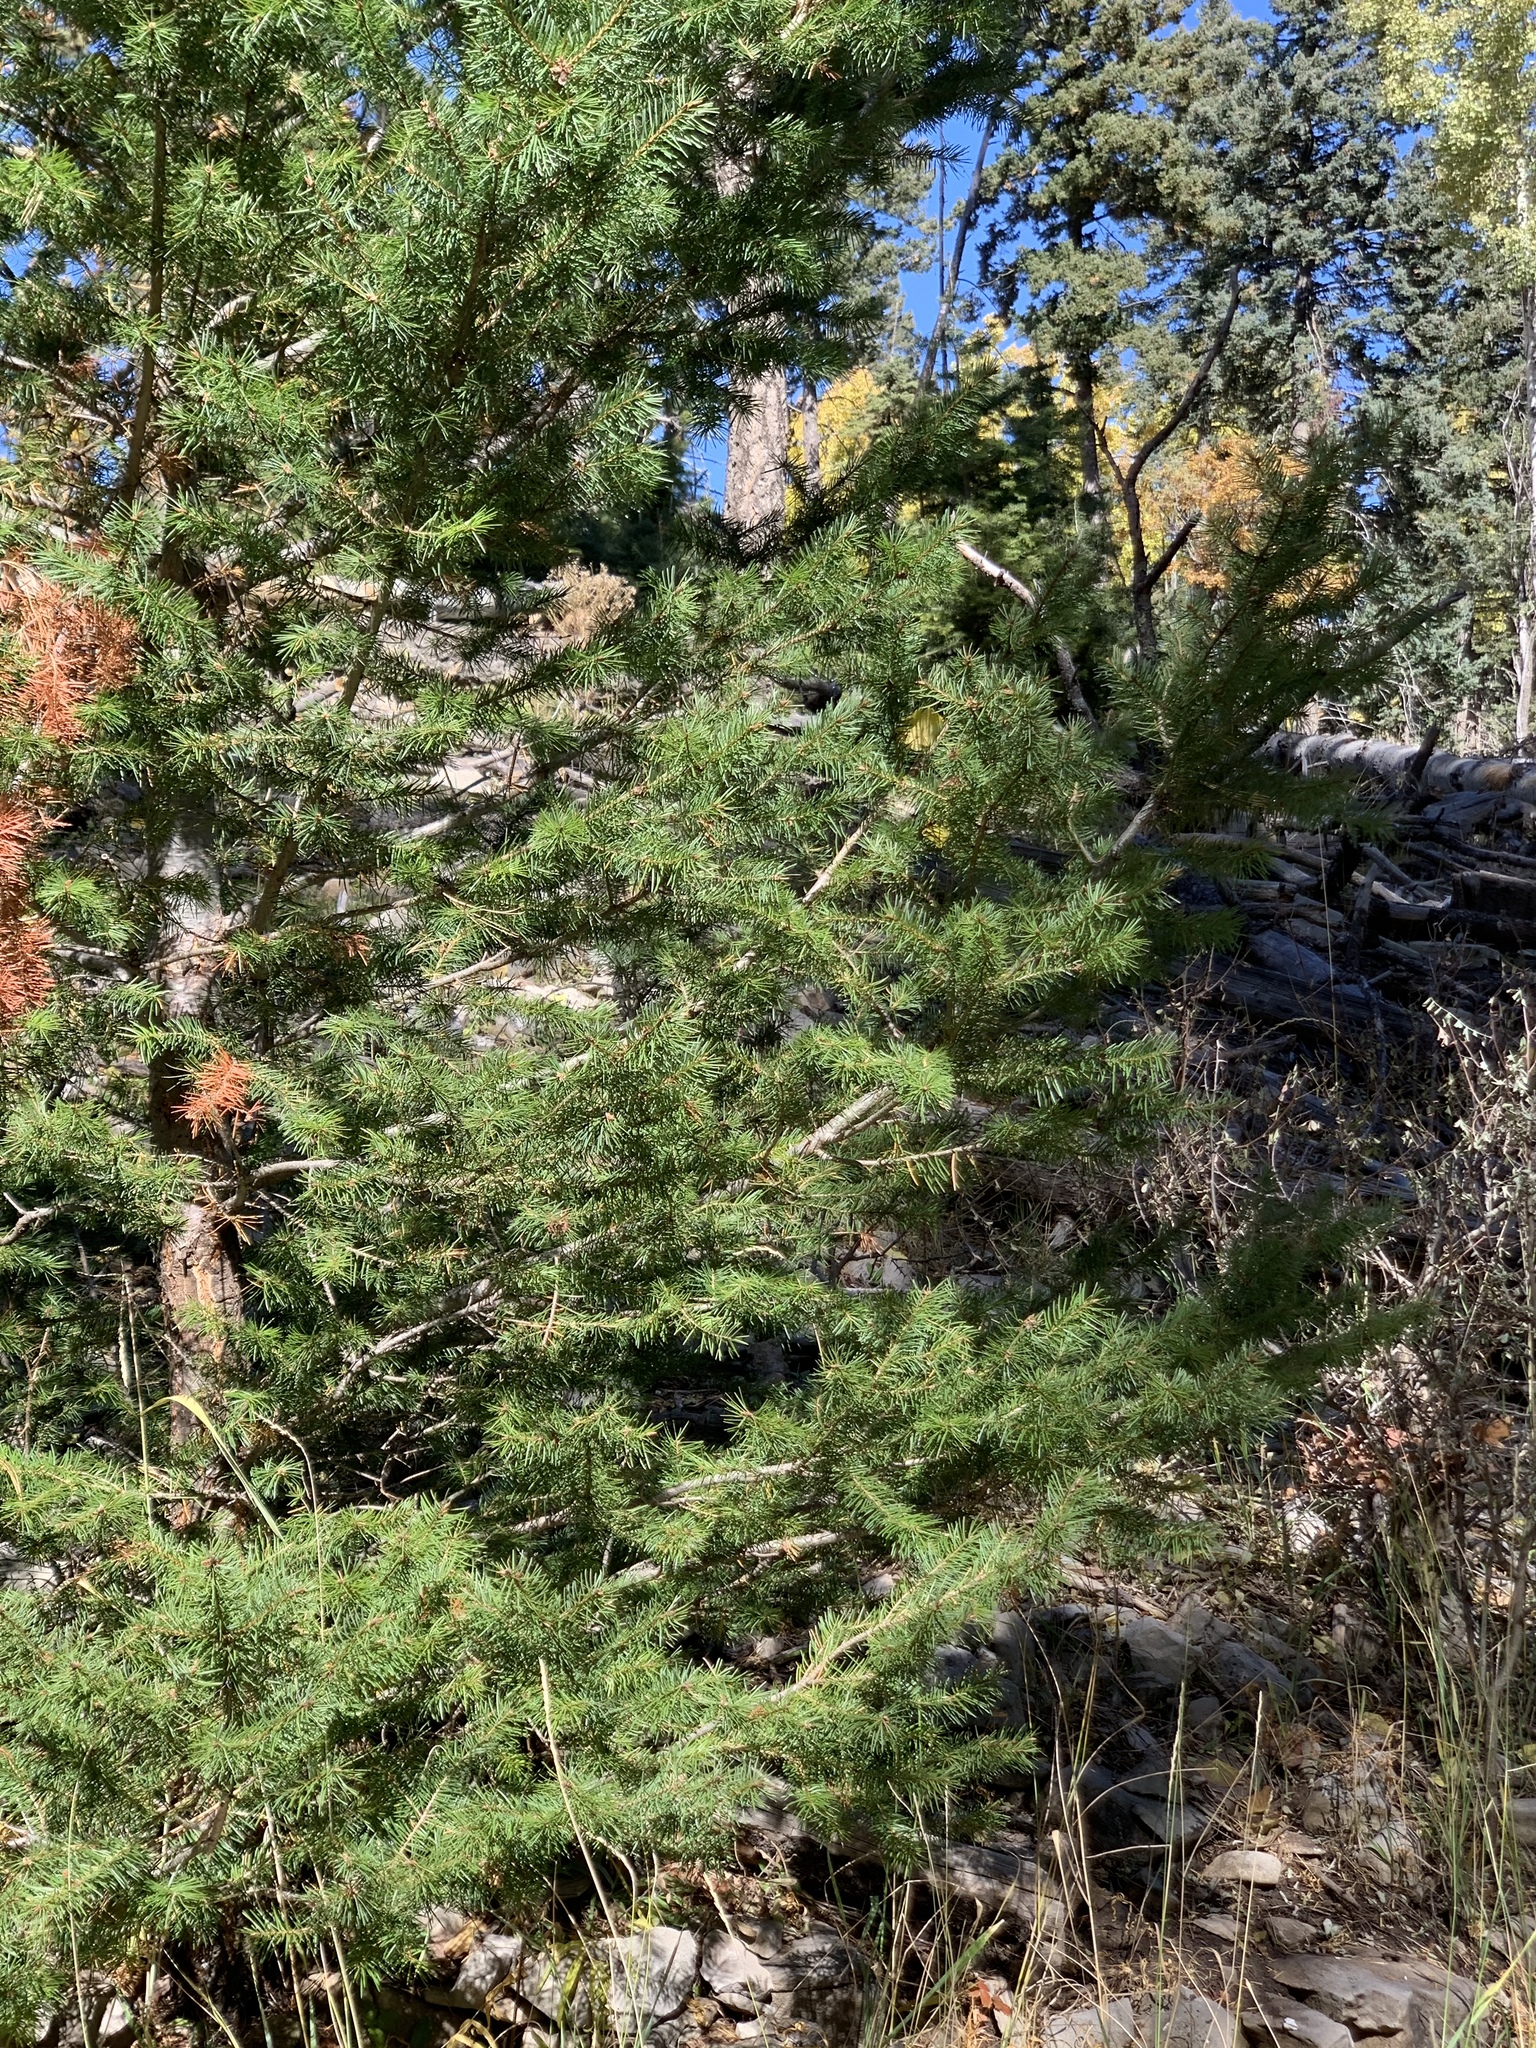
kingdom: Plantae
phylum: Tracheophyta
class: Pinopsida
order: Pinales
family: Pinaceae
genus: Pseudotsuga
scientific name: Pseudotsuga menziesii
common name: Douglas fir
